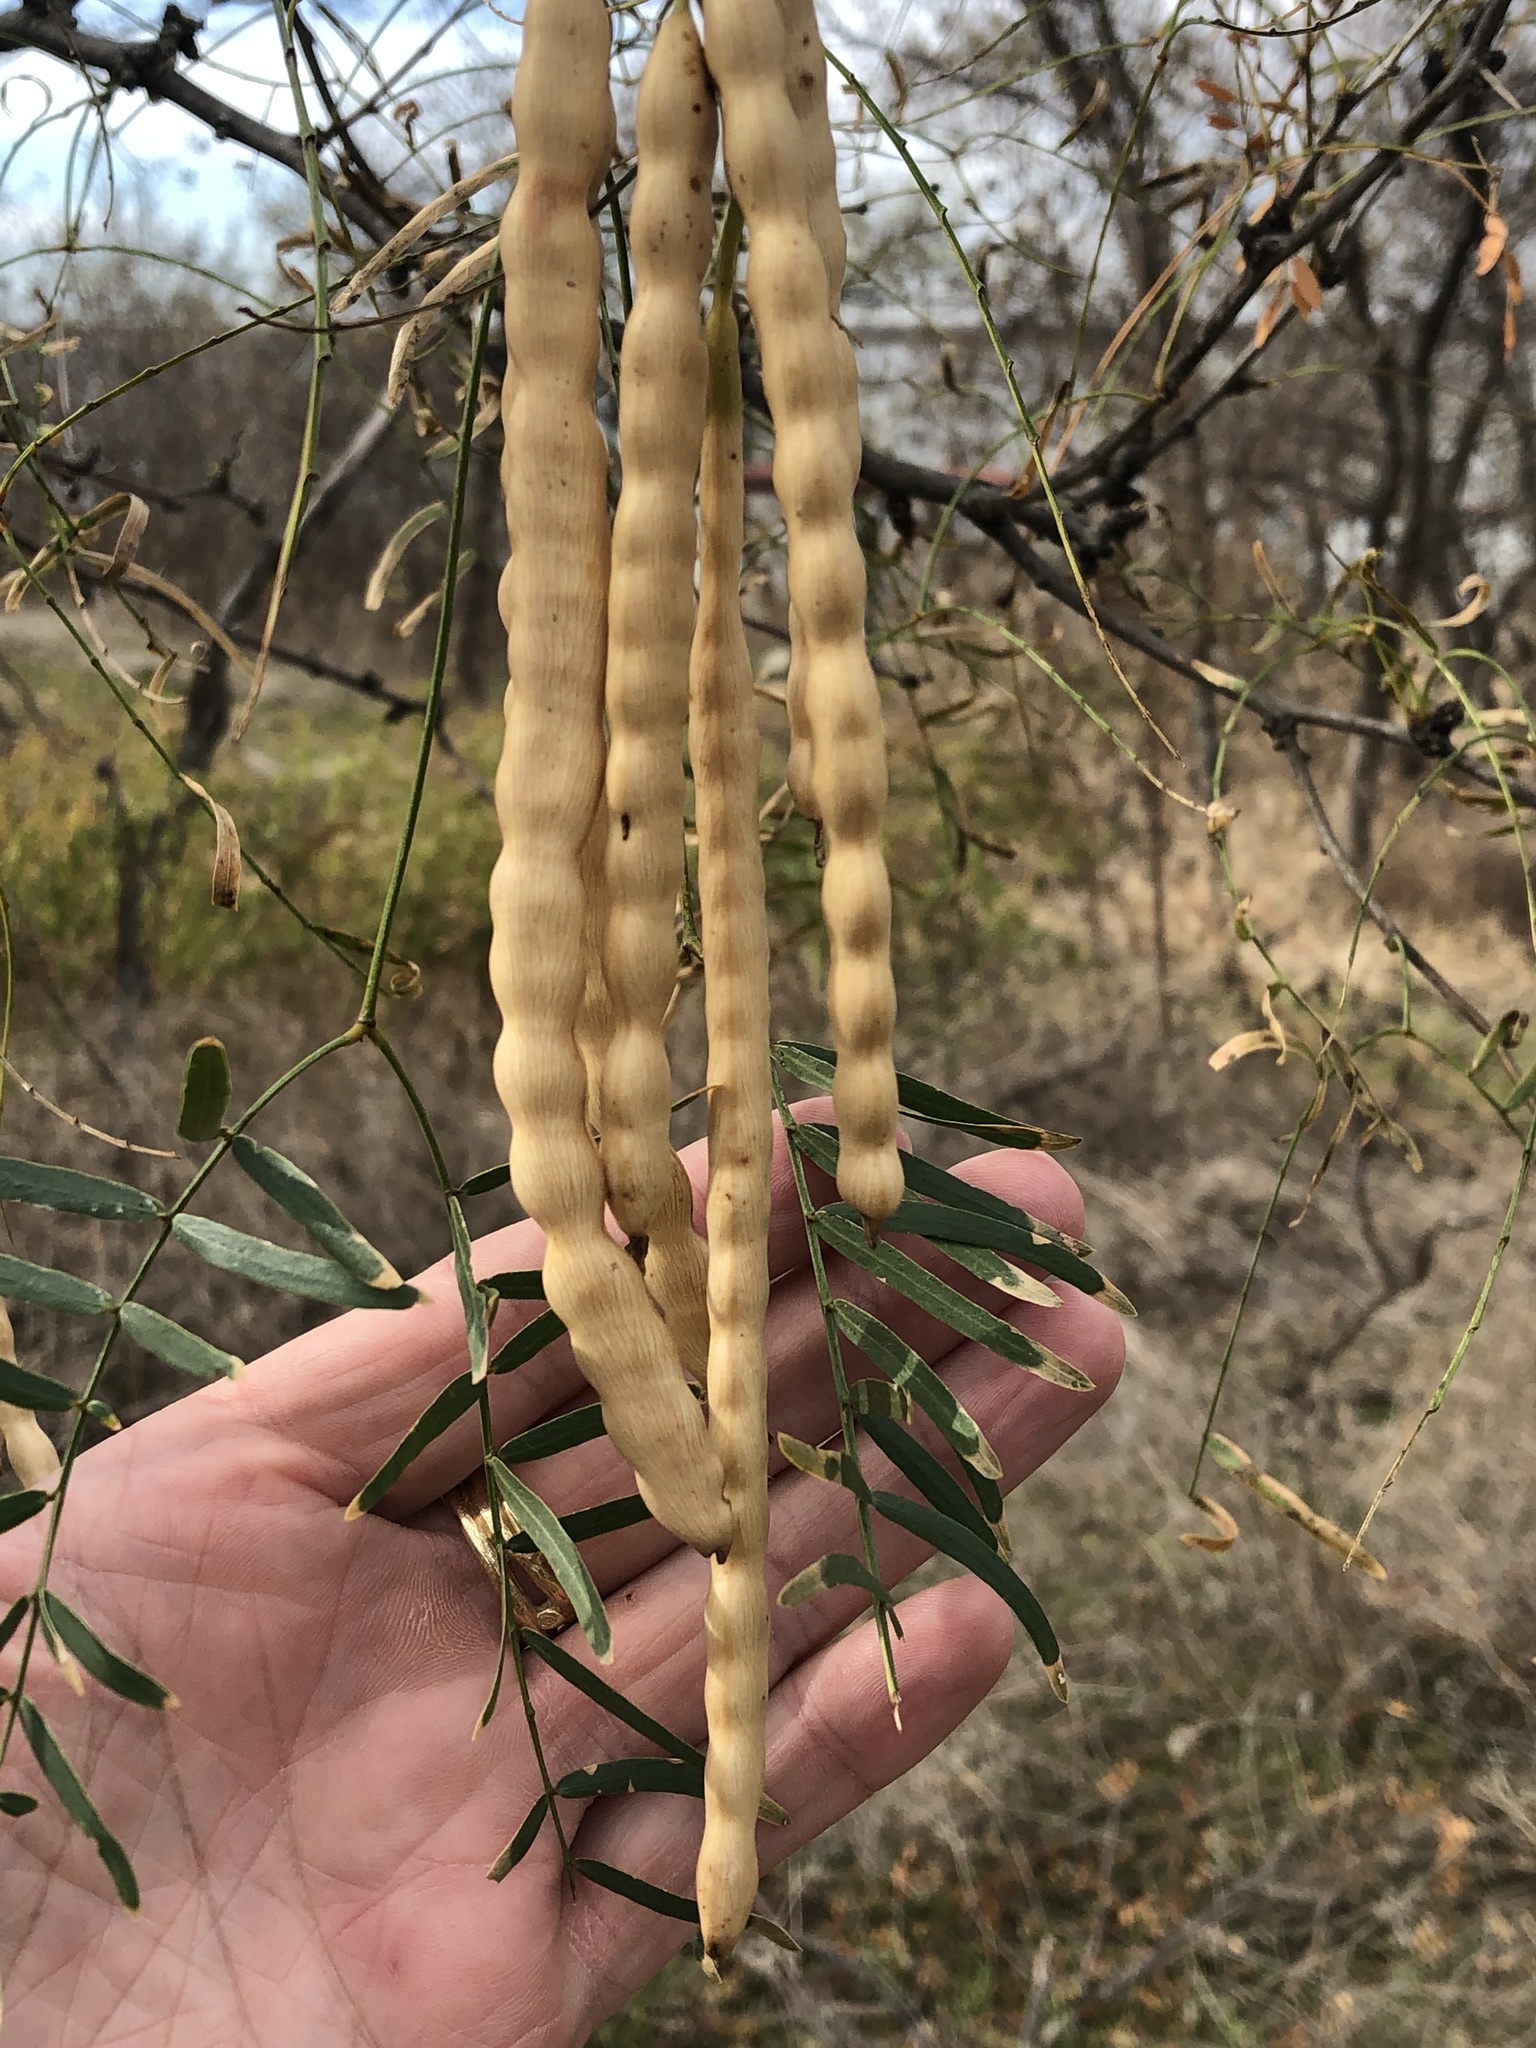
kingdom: Plantae
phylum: Tracheophyta
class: Magnoliopsida
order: Fabales
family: Fabaceae
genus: Prosopis
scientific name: Prosopis glandulosa
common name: Honey mesquite
